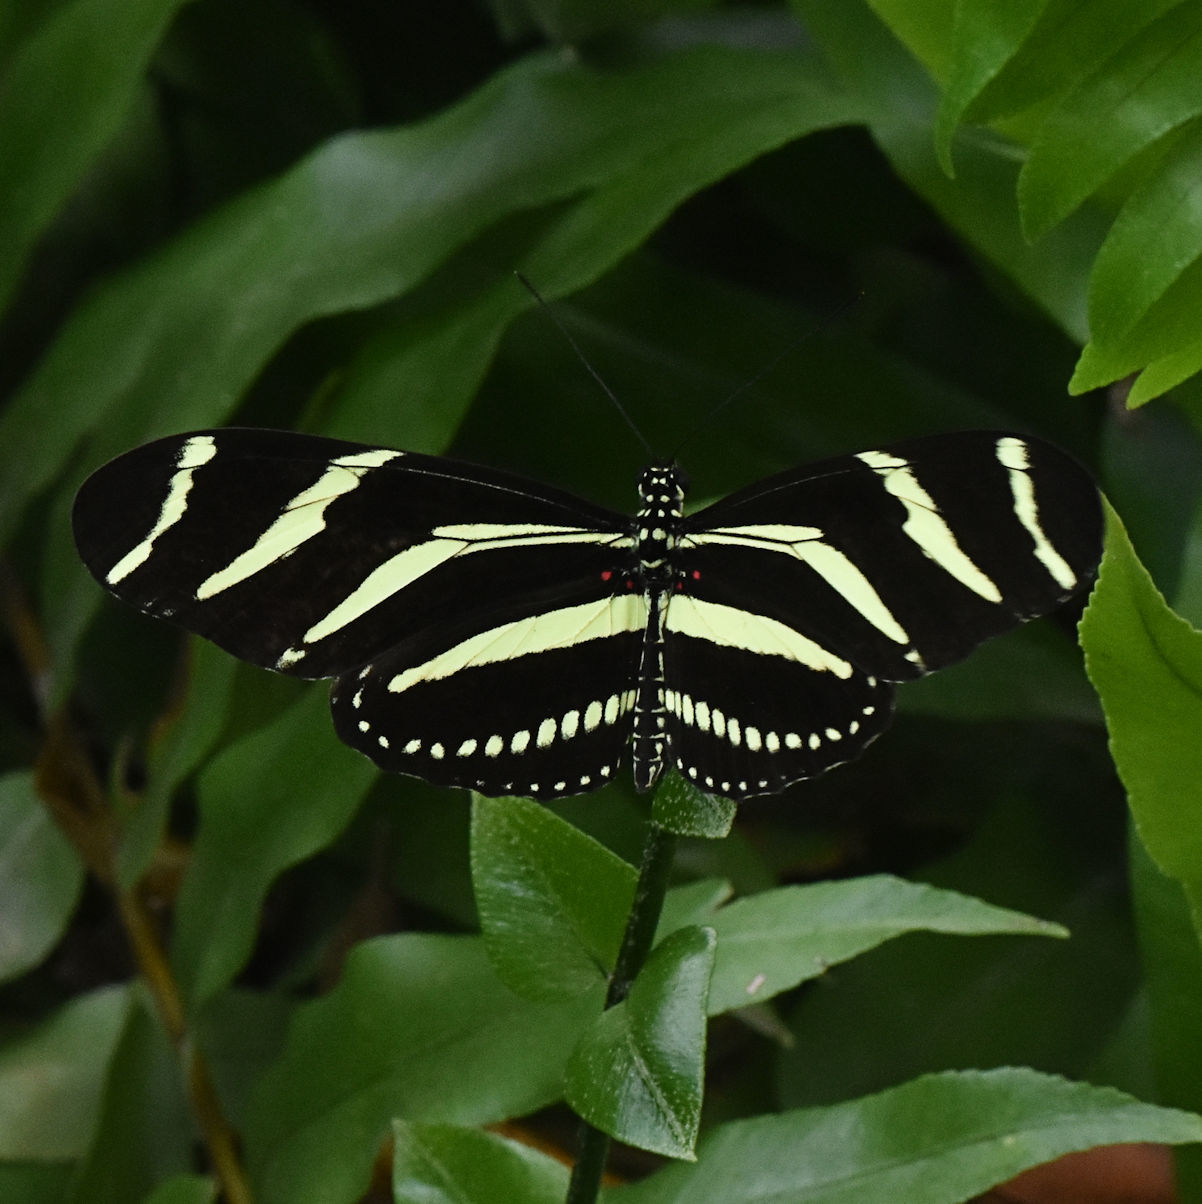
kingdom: Animalia
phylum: Arthropoda
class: Insecta
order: Lepidoptera
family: Nymphalidae
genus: Heliconius
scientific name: Heliconius charithonia
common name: Zebra long wing
